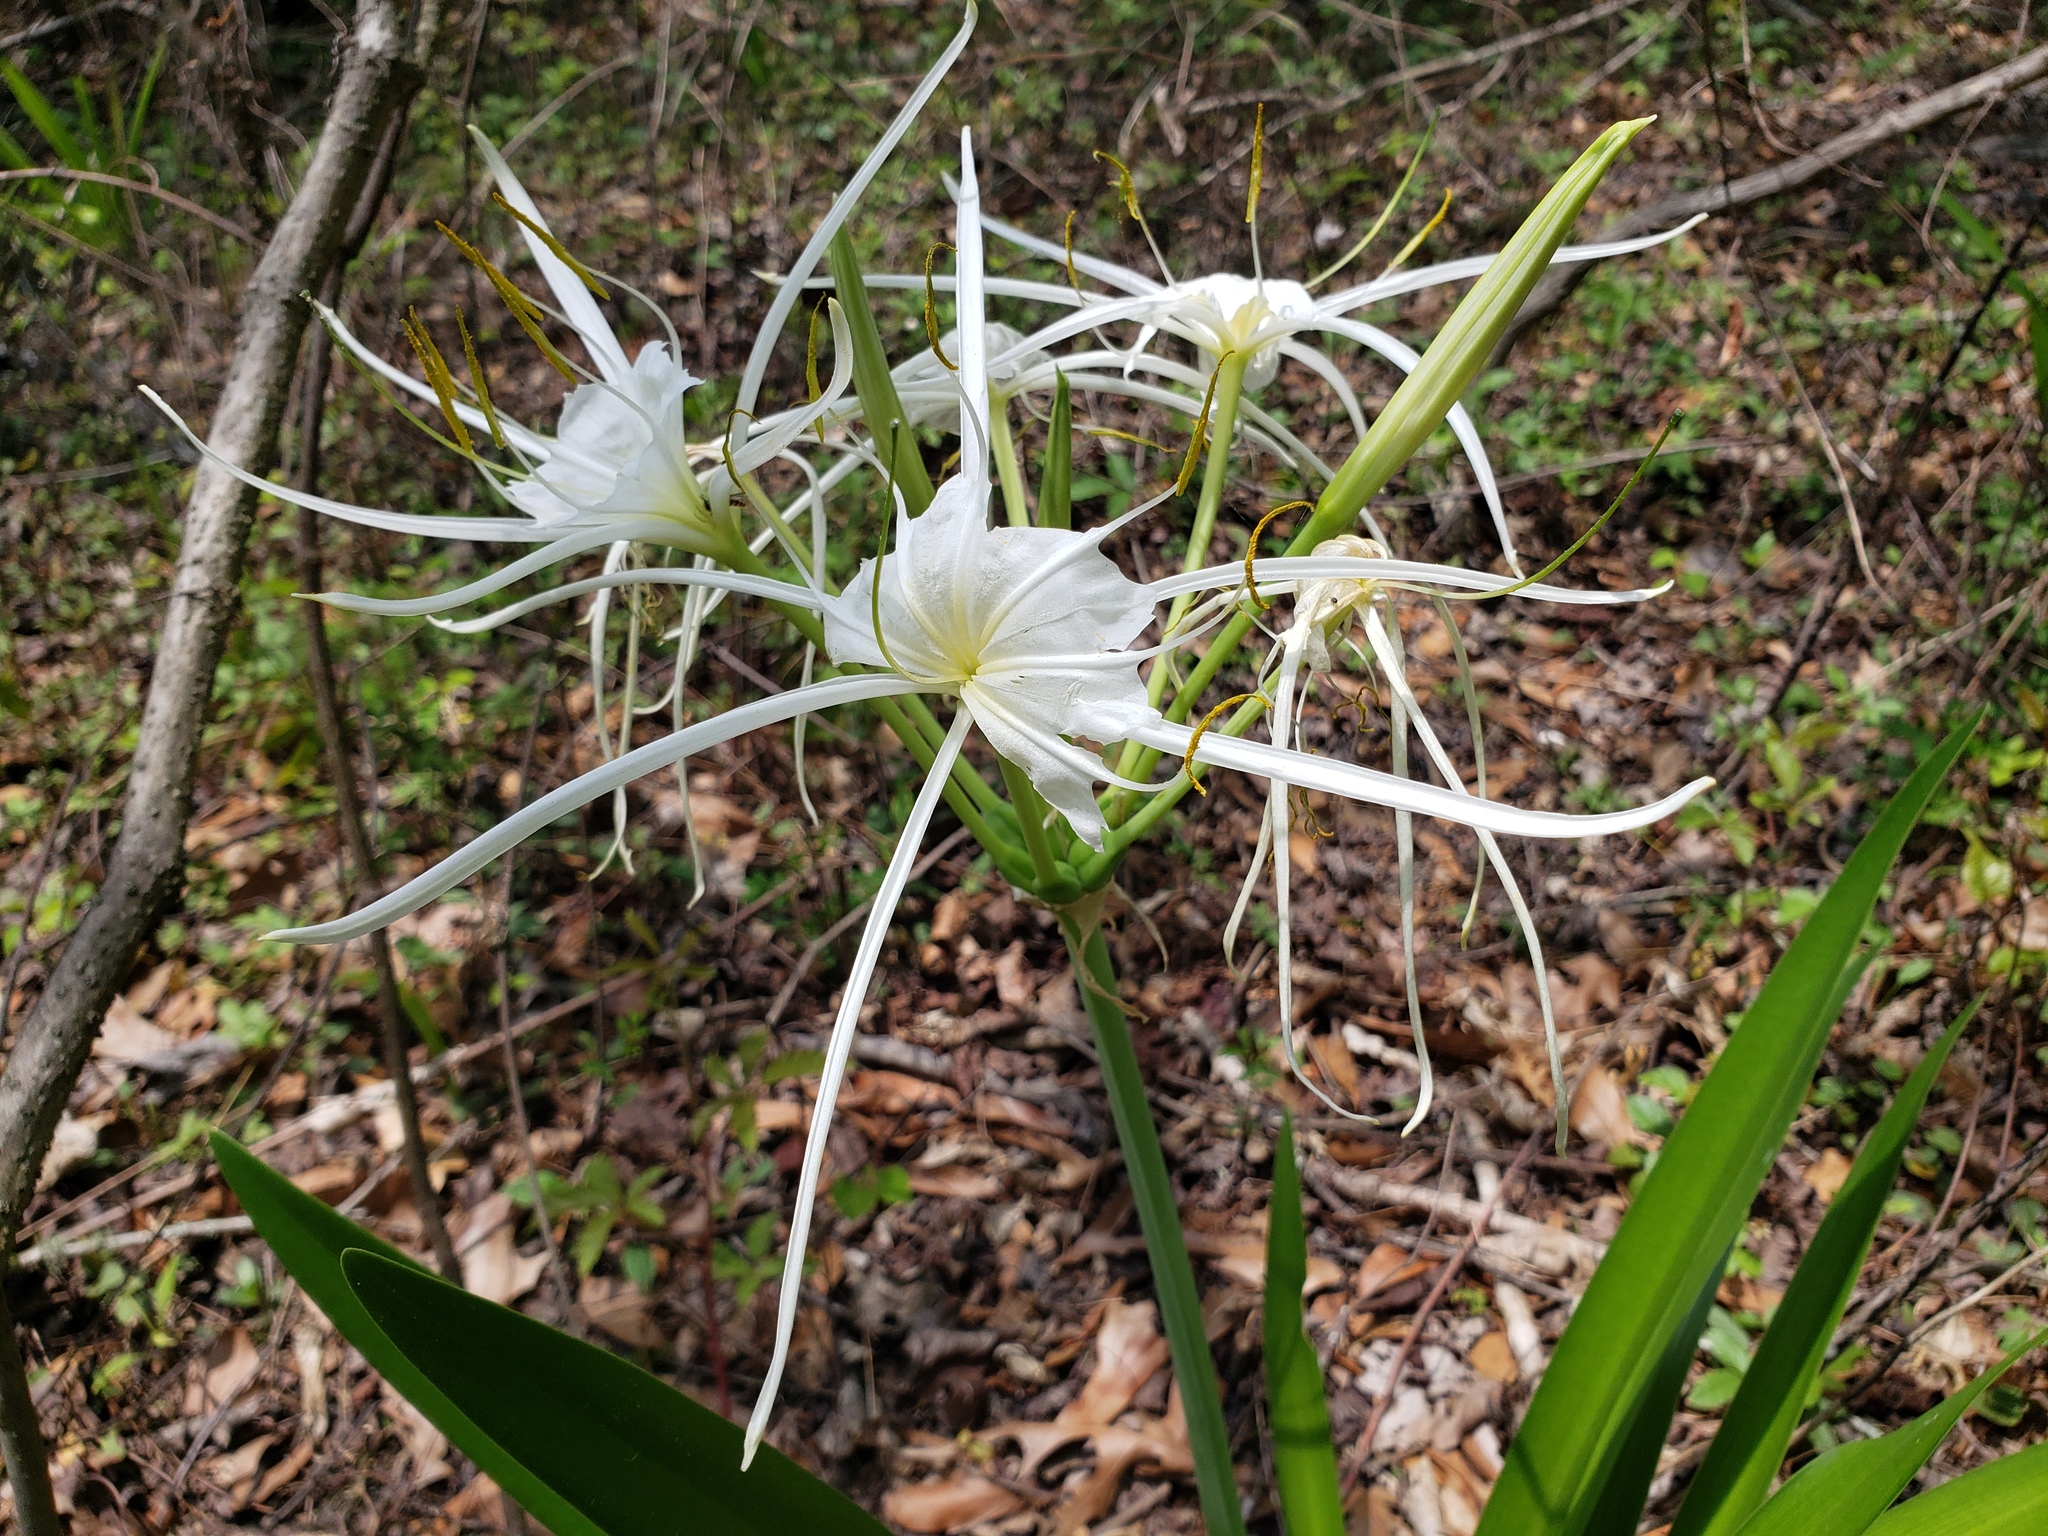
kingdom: Plantae
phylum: Tracheophyta
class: Liliopsida
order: Asparagales
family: Amaryllidaceae
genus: Hymenocallis
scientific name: Hymenocallis liriosme
